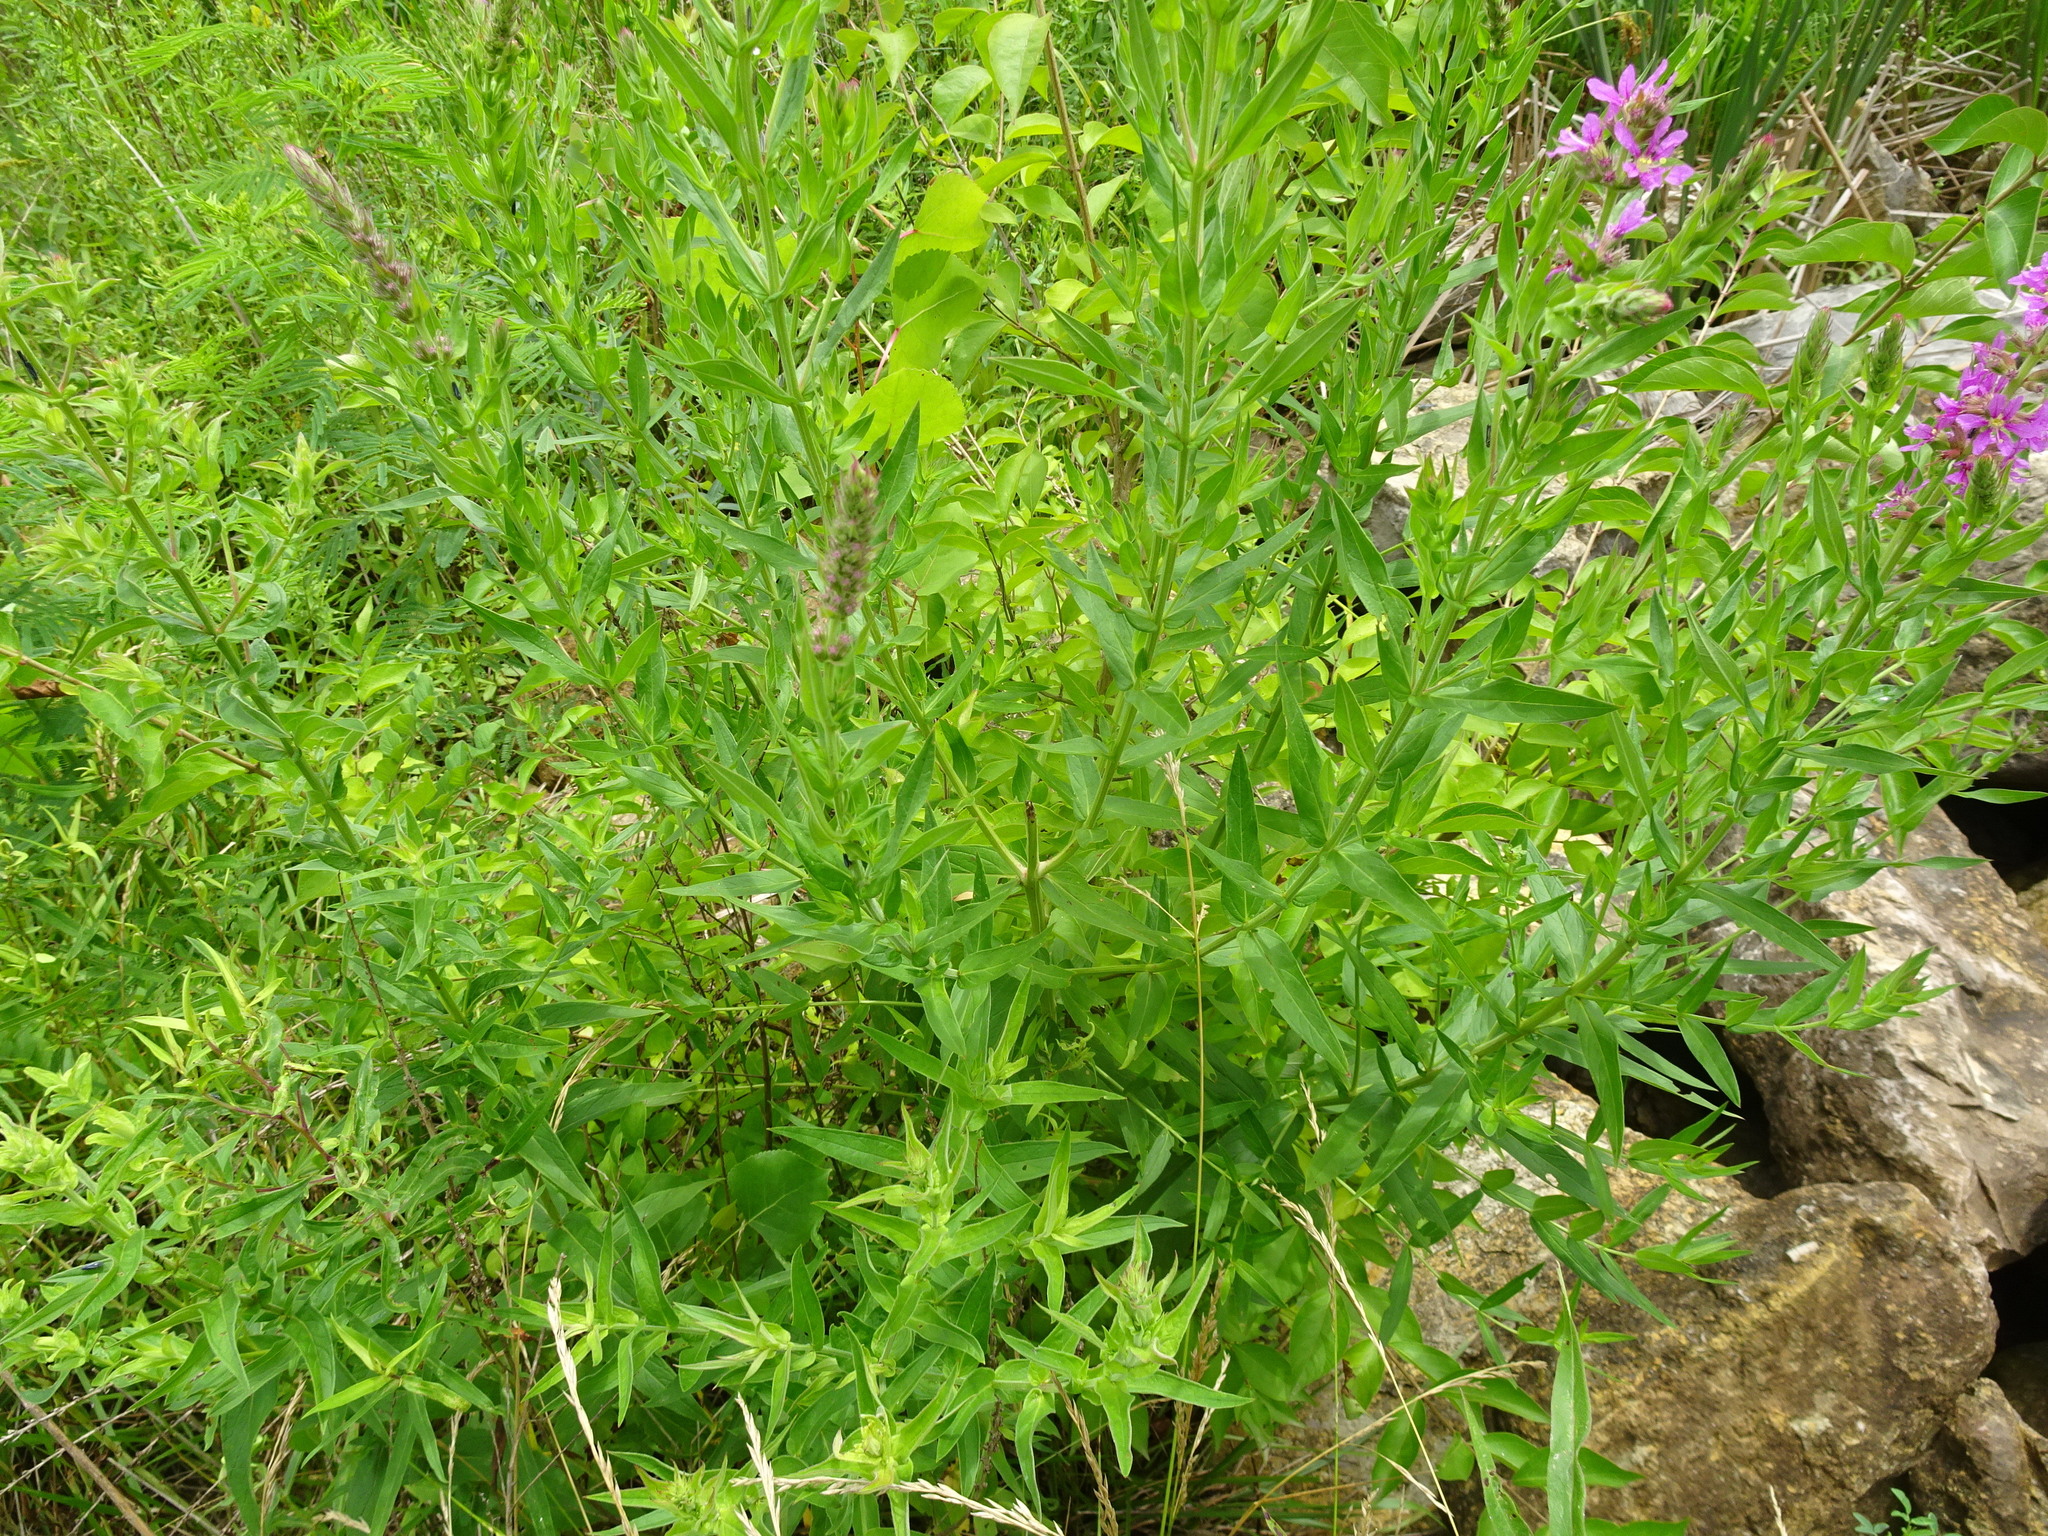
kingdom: Plantae
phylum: Tracheophyta
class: Magnoliopsida
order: Myrtales
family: Lythraceae
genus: Lythrum
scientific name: Lythrum salicaria
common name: Purple loosestrife
